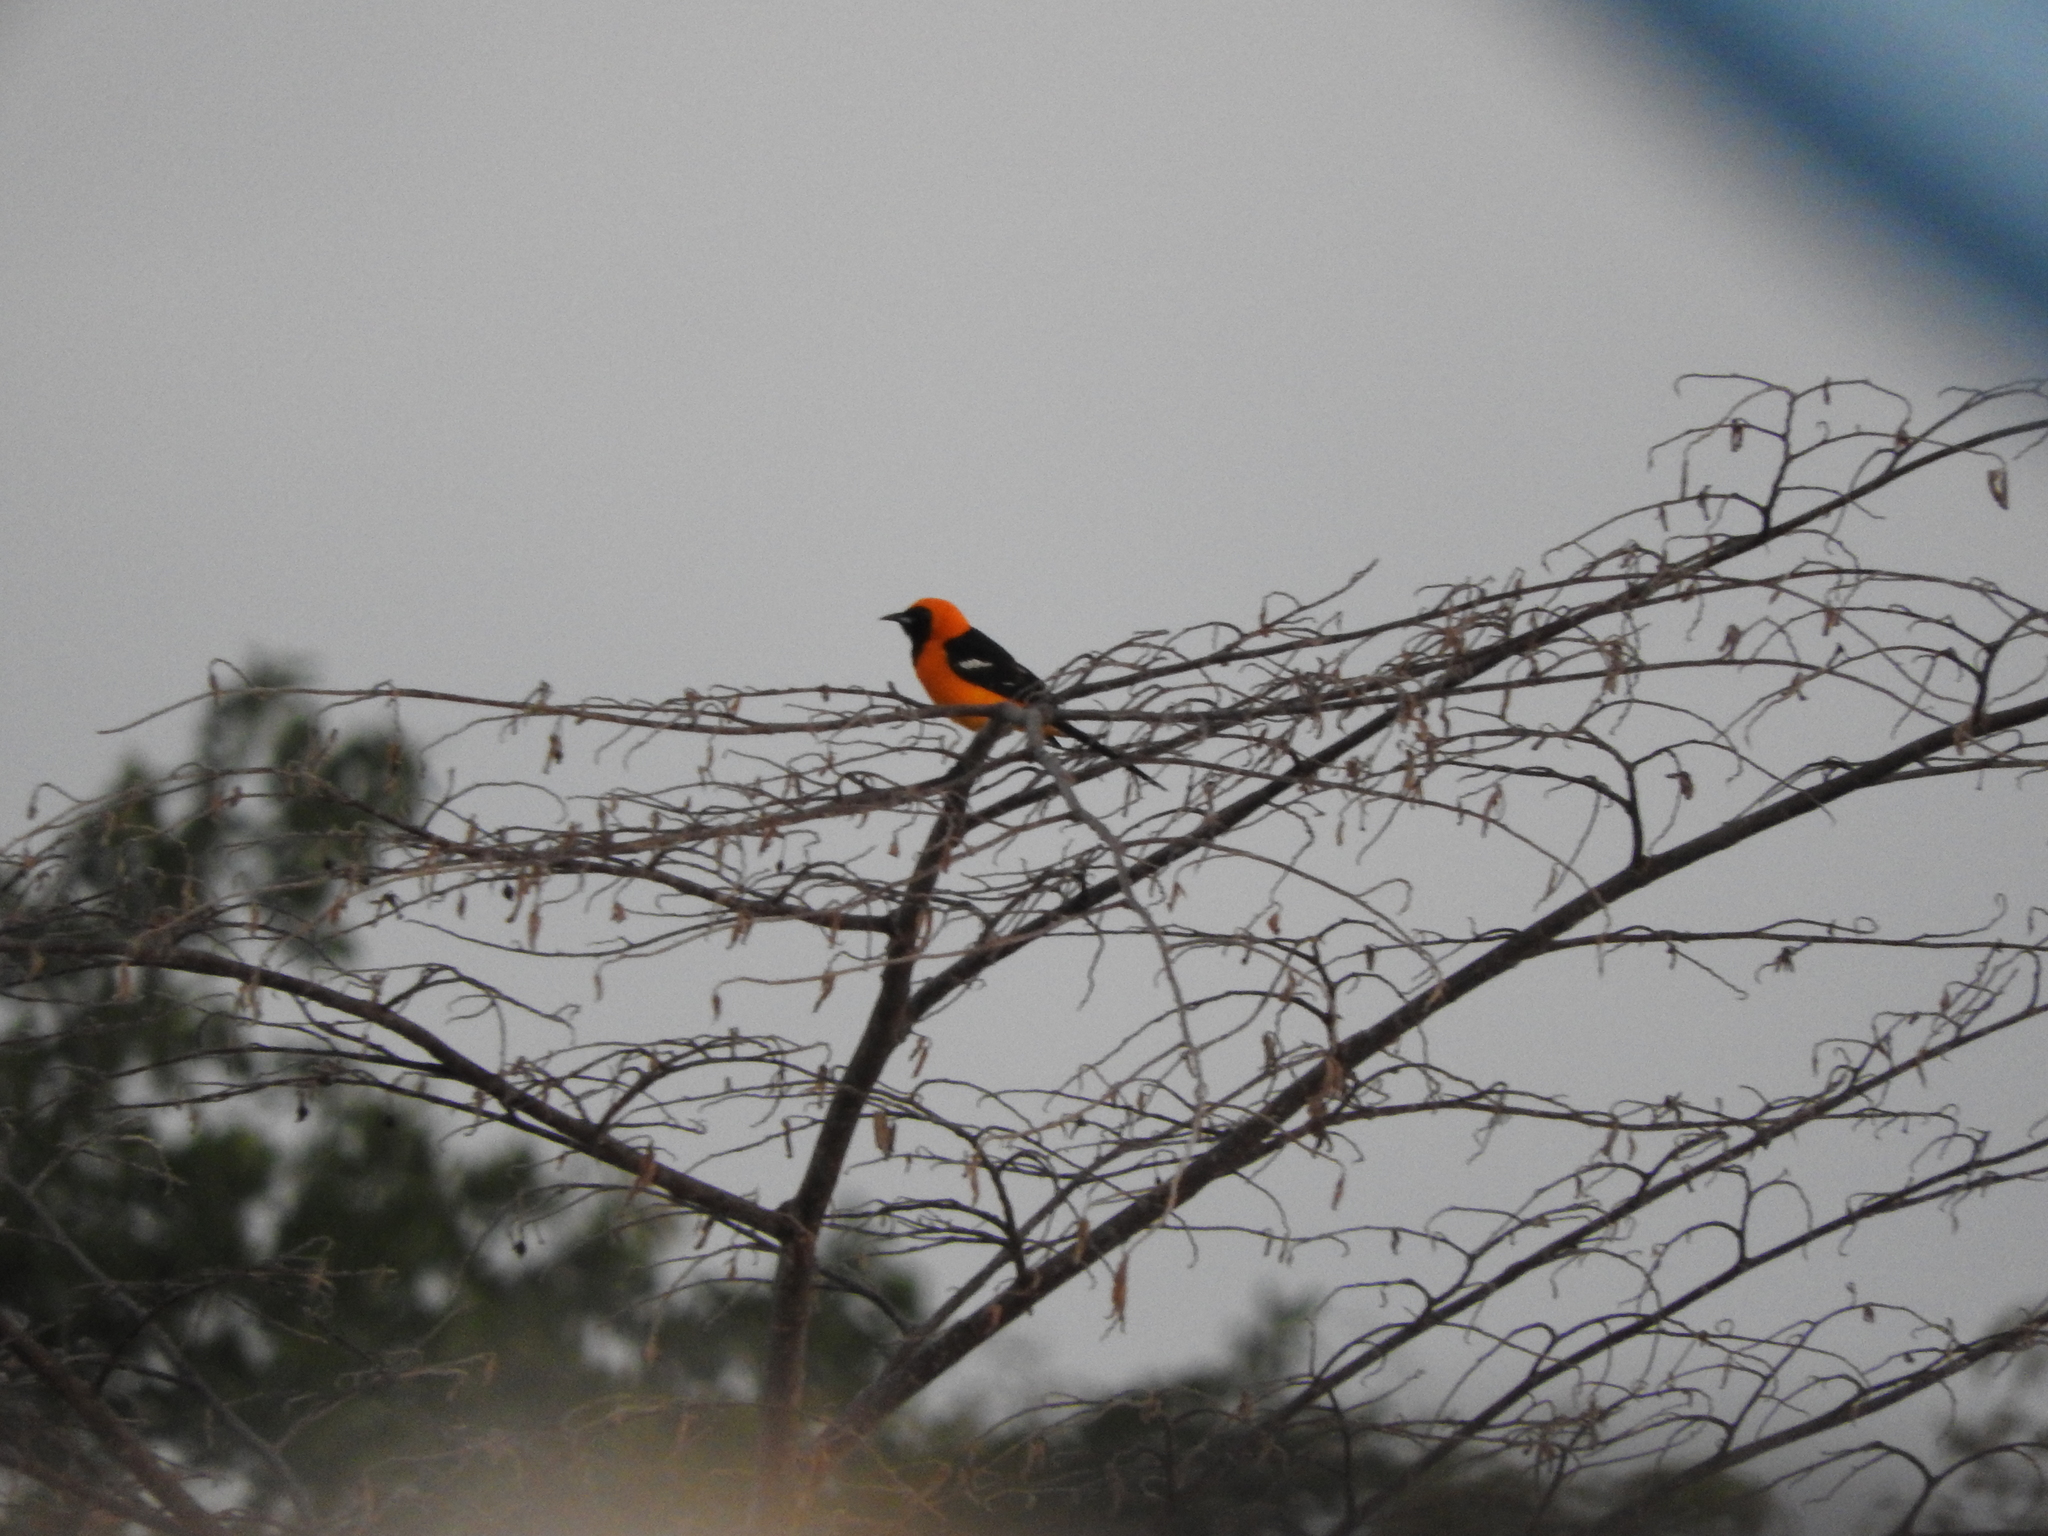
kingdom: Animalia
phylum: Chordata
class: Aves
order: Passeriformes
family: Icteridae
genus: Icterus
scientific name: Icterus cucullatus
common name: Hooded oriole
